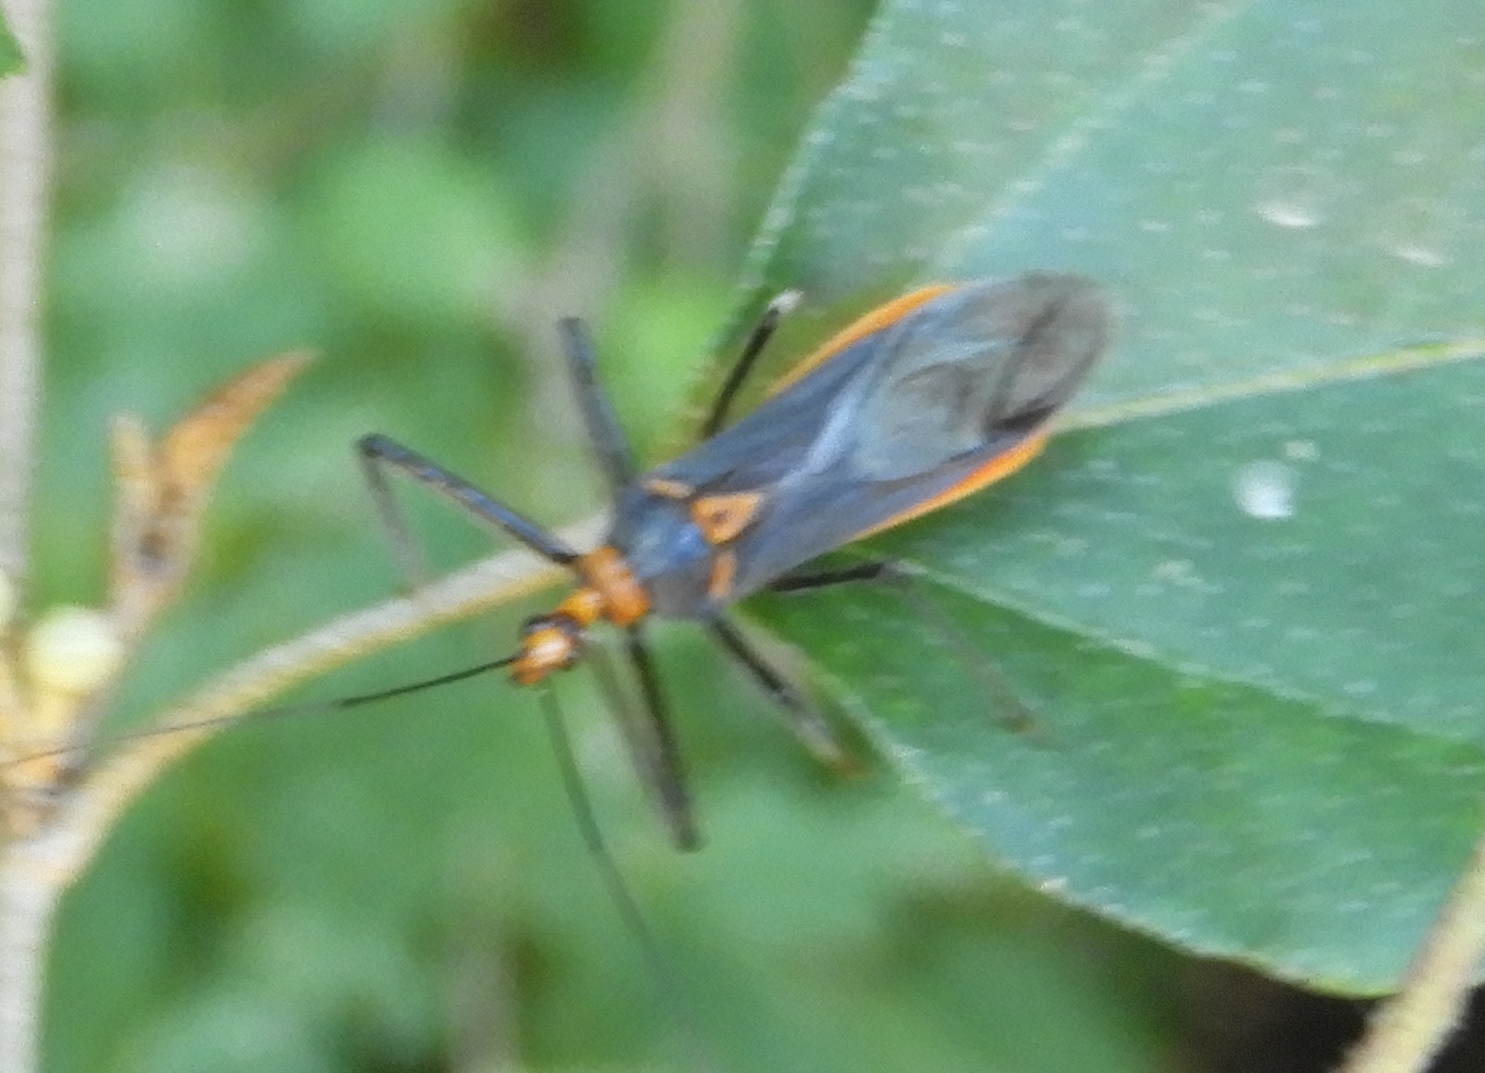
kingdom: Animalia
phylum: Arthropoda
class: Insecta
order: Hemiptera
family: Reduviidae
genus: Repipta
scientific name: Repipta fuscipes
